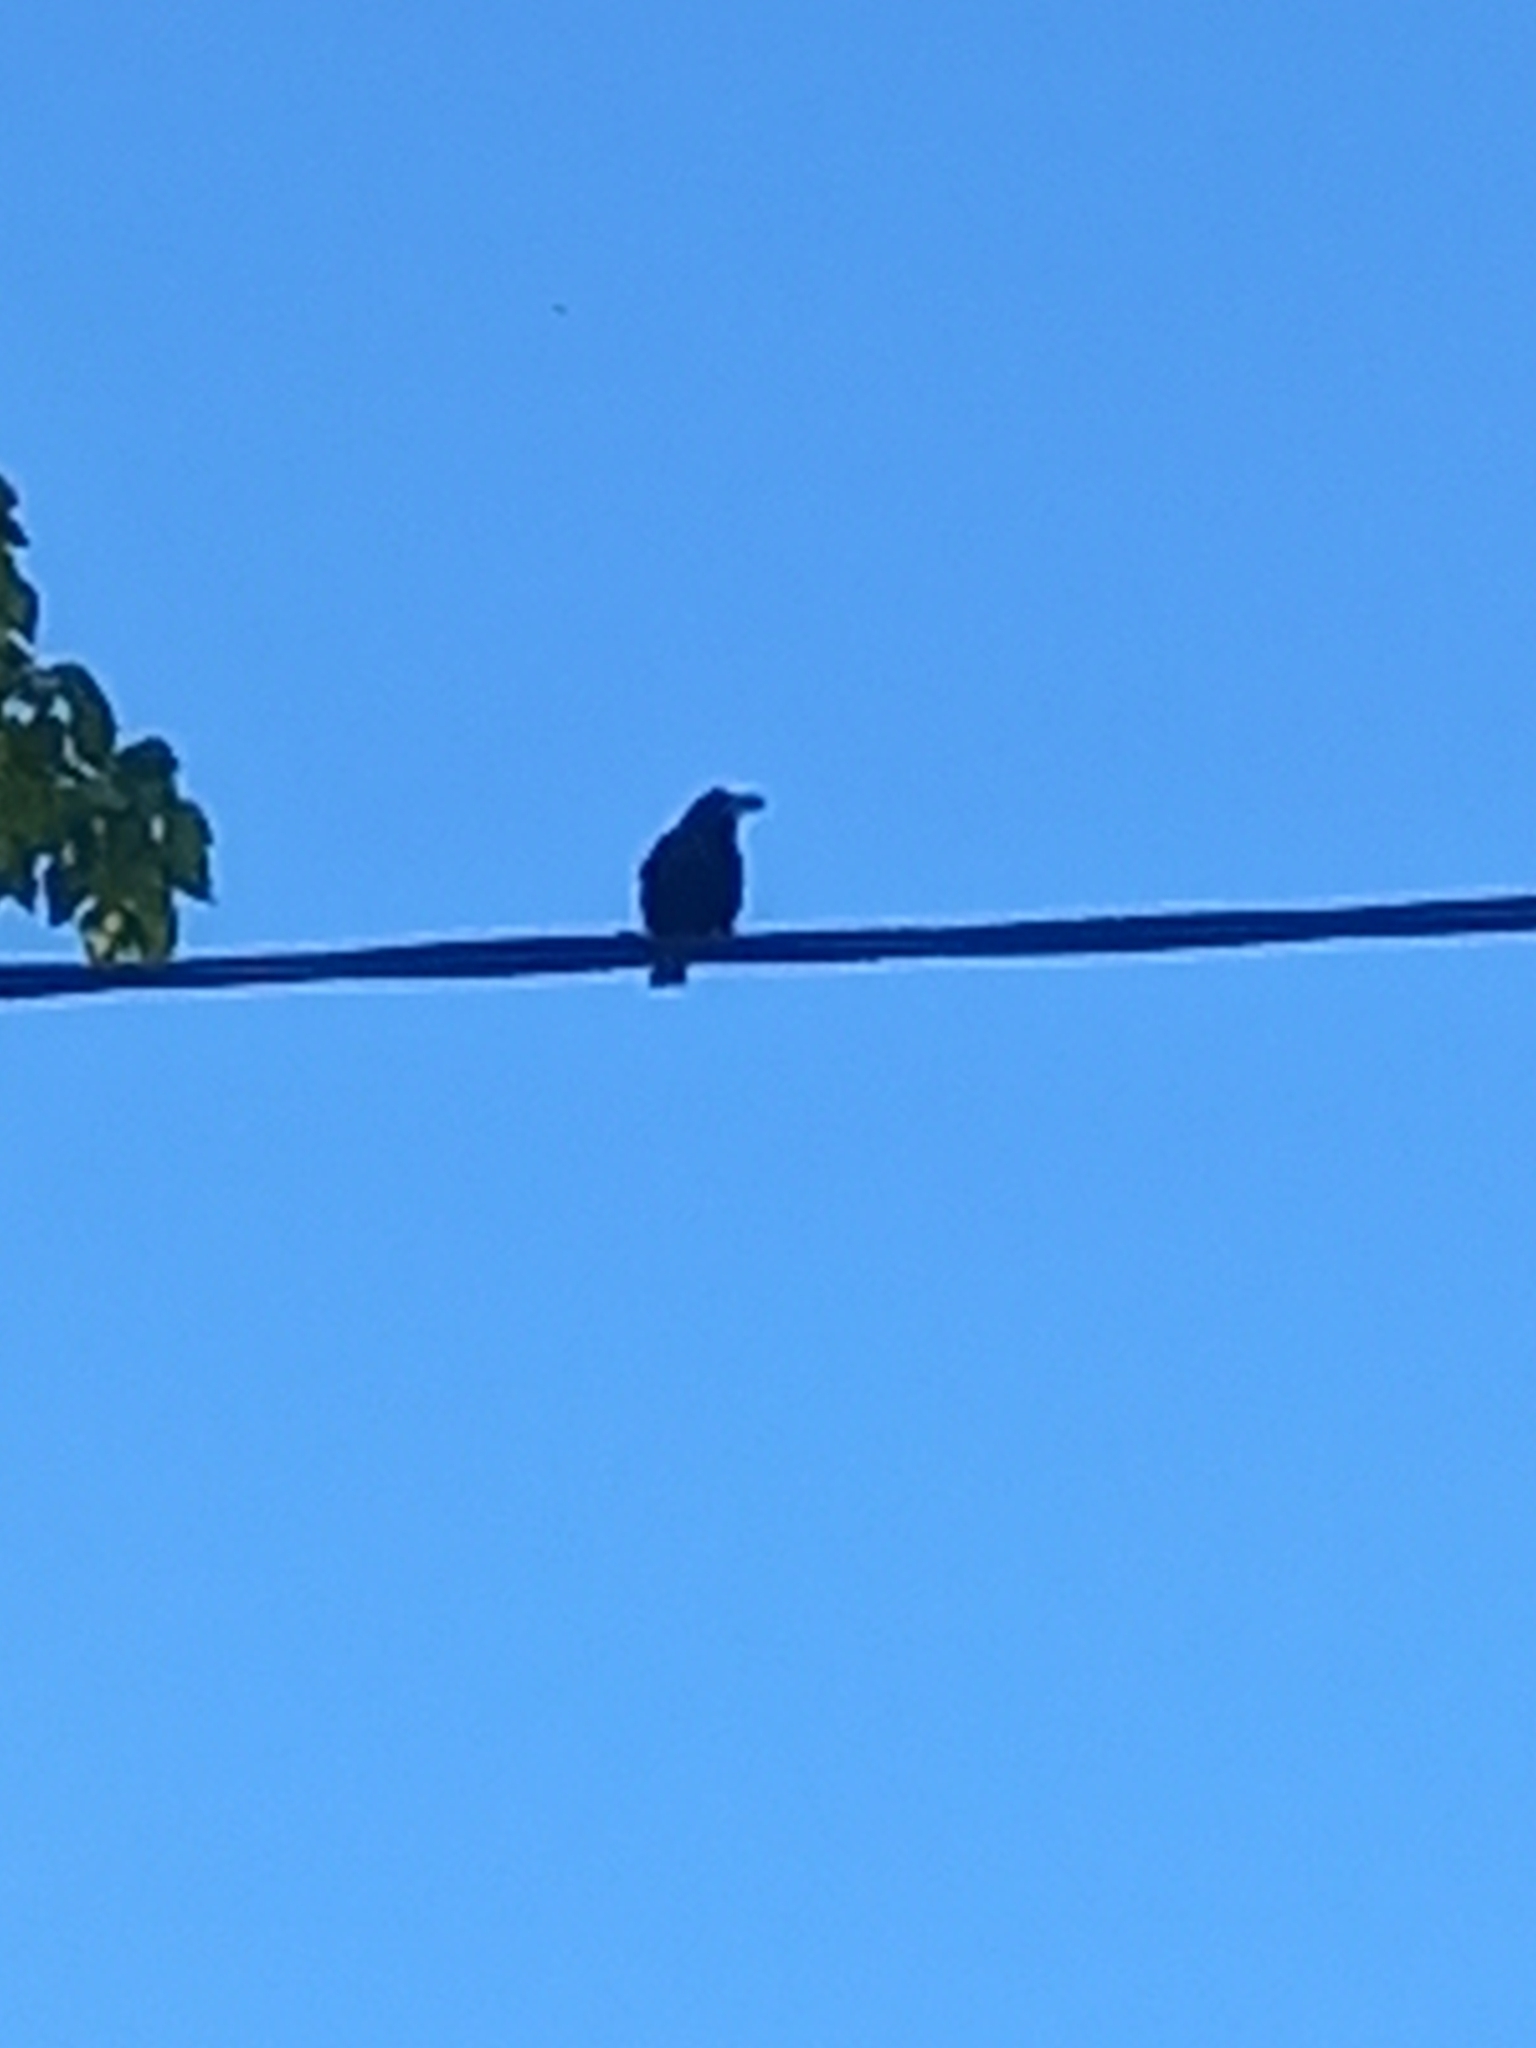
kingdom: Animalia
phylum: Chordata
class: Aves
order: Passeriformes
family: Sturnidae
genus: Sturnus
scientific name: Sturnus vulgaris
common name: Common starling
